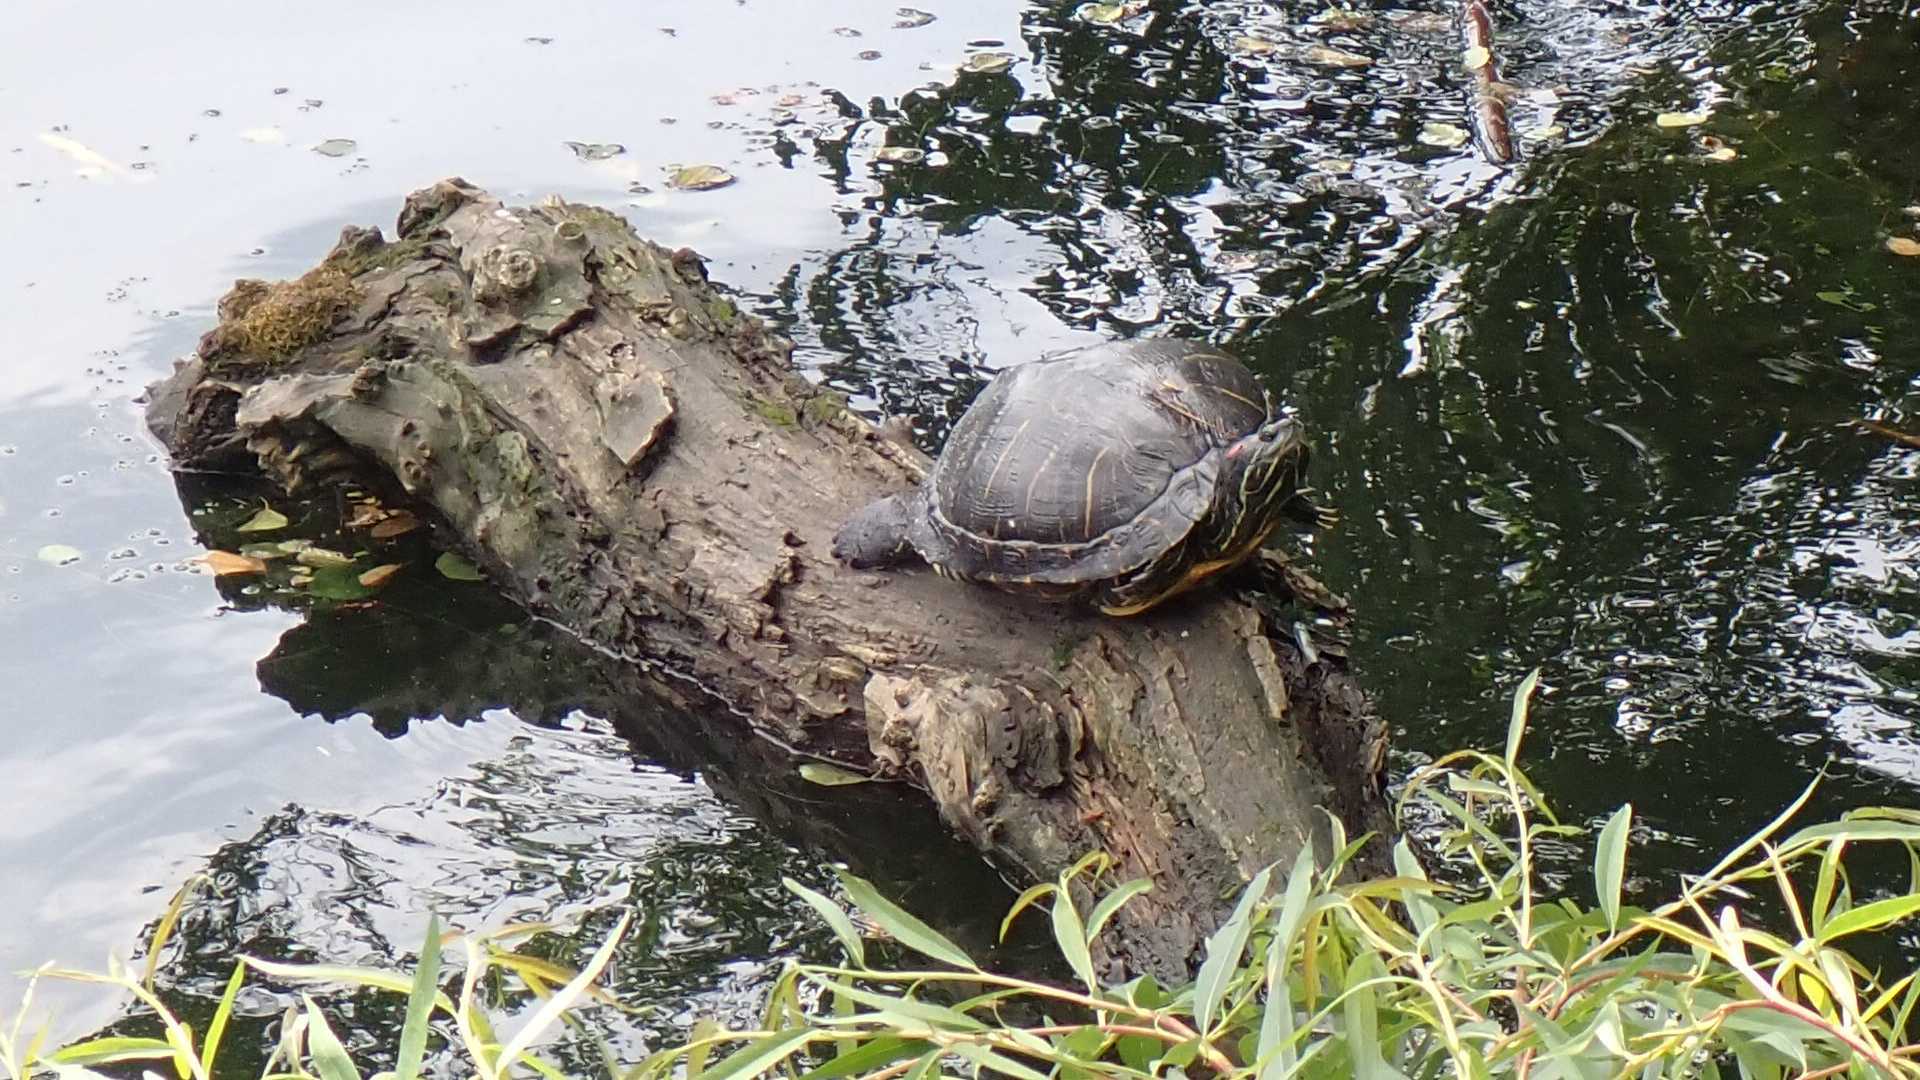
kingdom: Animalia
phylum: Chordata
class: Testudines
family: Emydidae
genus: Trachemys
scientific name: Trachemys scripta
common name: Slider
